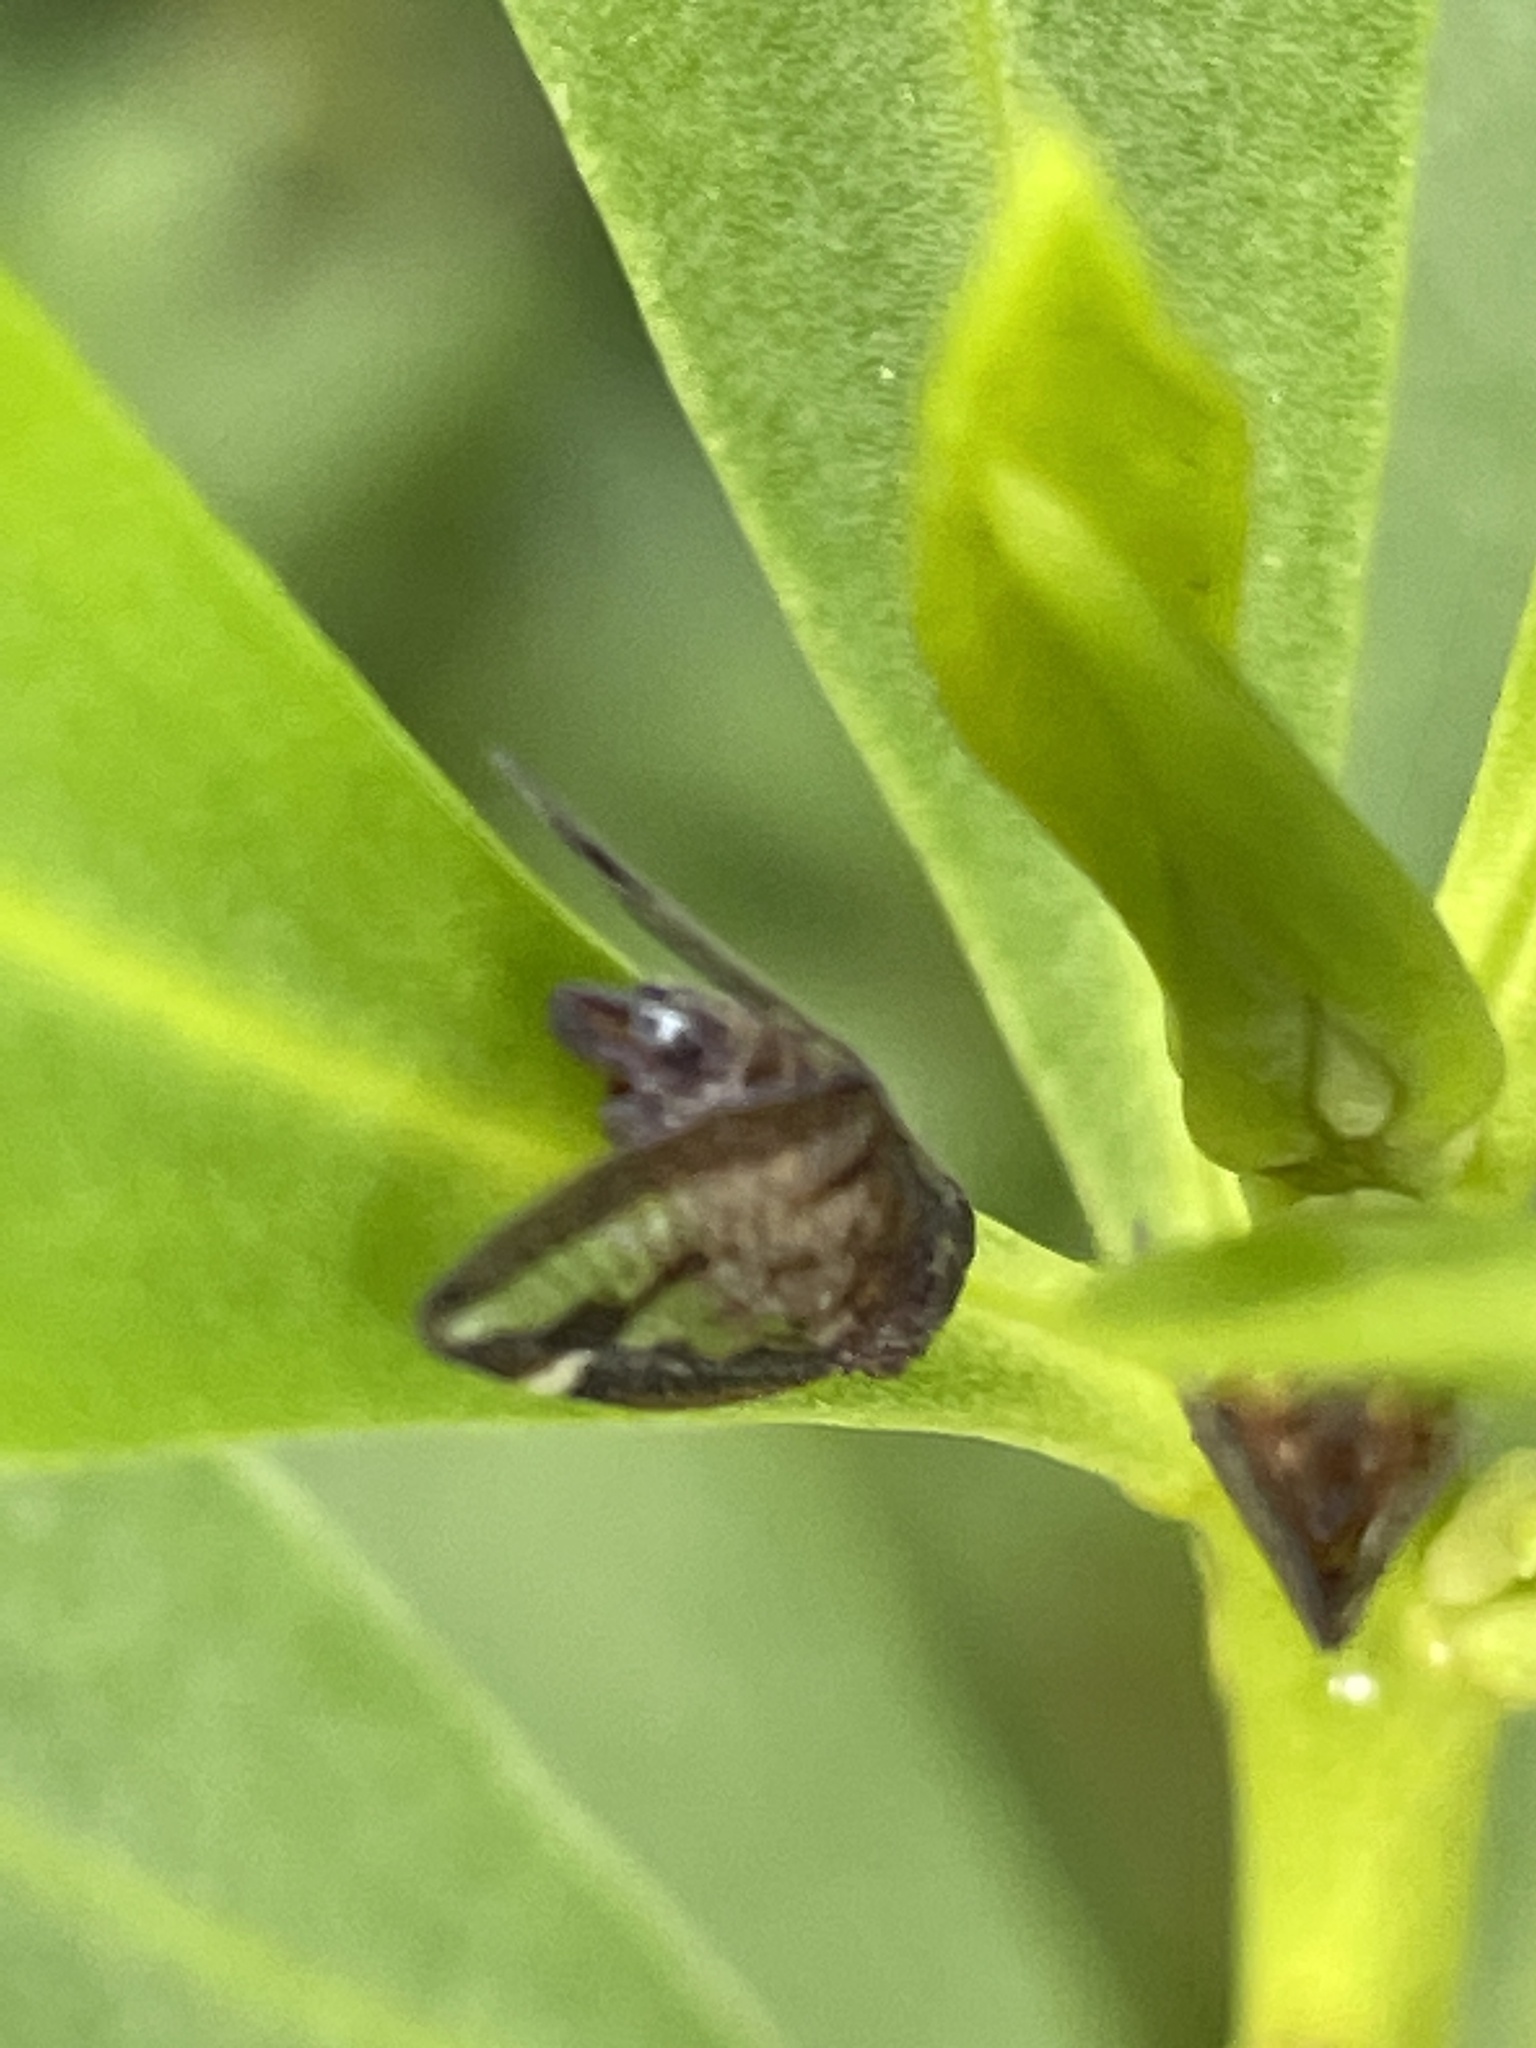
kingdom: Animalia
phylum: Arthropoda
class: Insecta
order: Hemiptera
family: Ricaniidae
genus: Scolypopa
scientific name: Scolypopa australis
